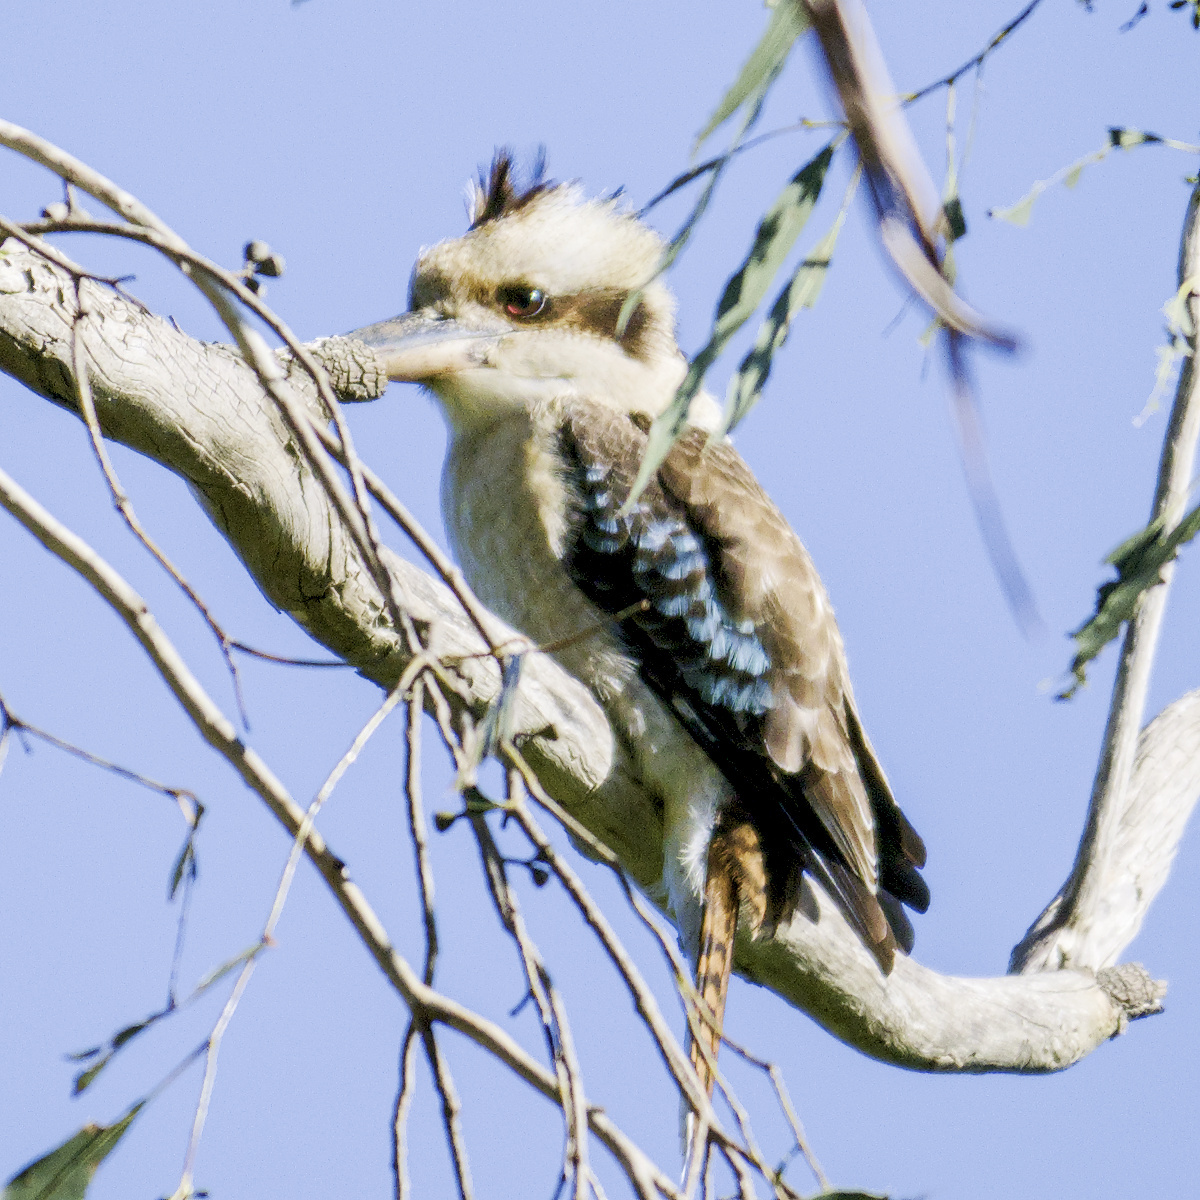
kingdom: Animalia
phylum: Chordata
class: Aves
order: Coraciiformes
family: Alcedinidae
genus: Dacelo
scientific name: Dacelo novaeguineae
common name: Laughing kookaburra
